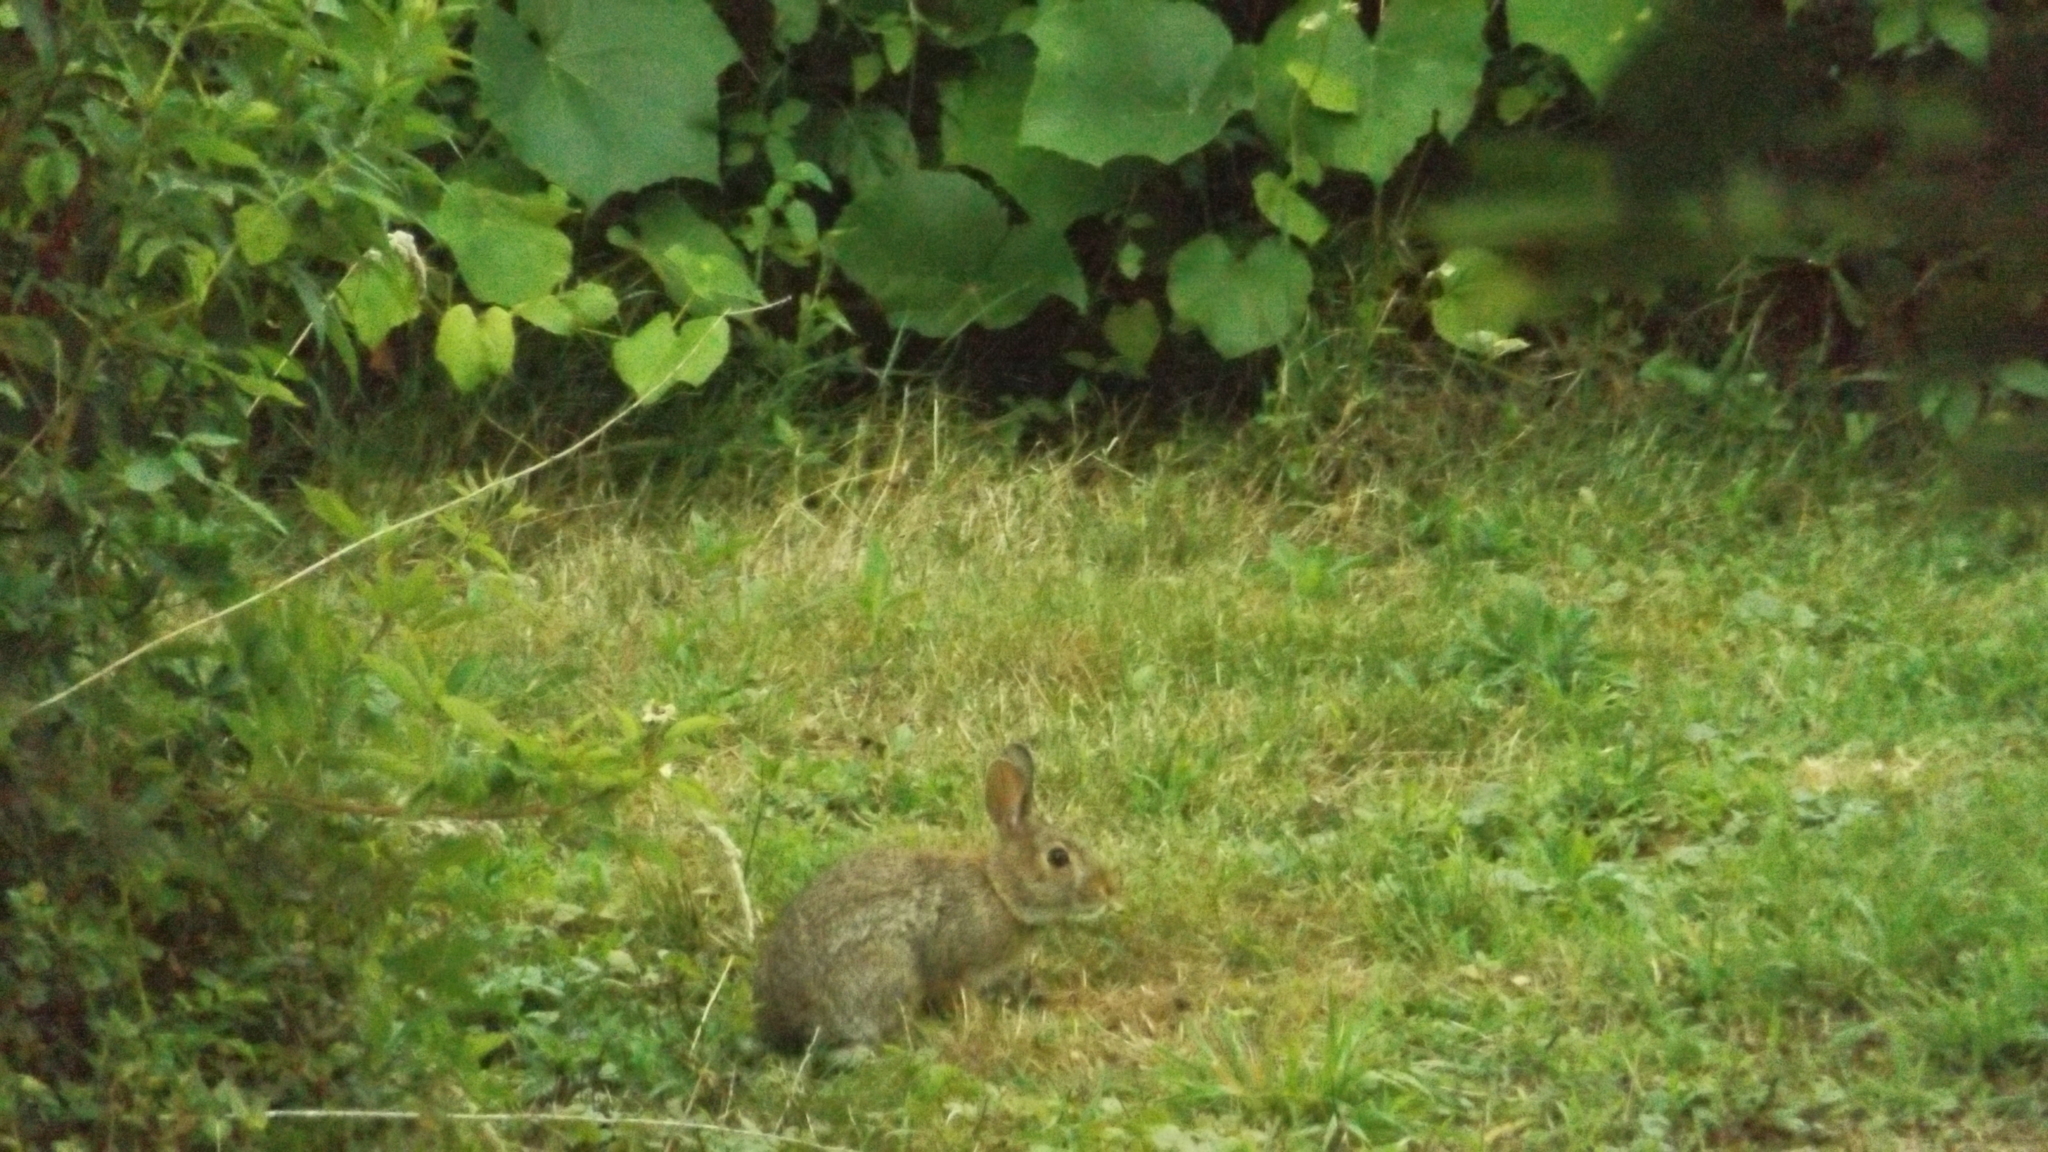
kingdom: Animalia
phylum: Chordata
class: Mammalia
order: Lagomorpha
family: Leporidae
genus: Sylvilagus
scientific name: Sylvilagus floridanus
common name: Eastern cottontail
